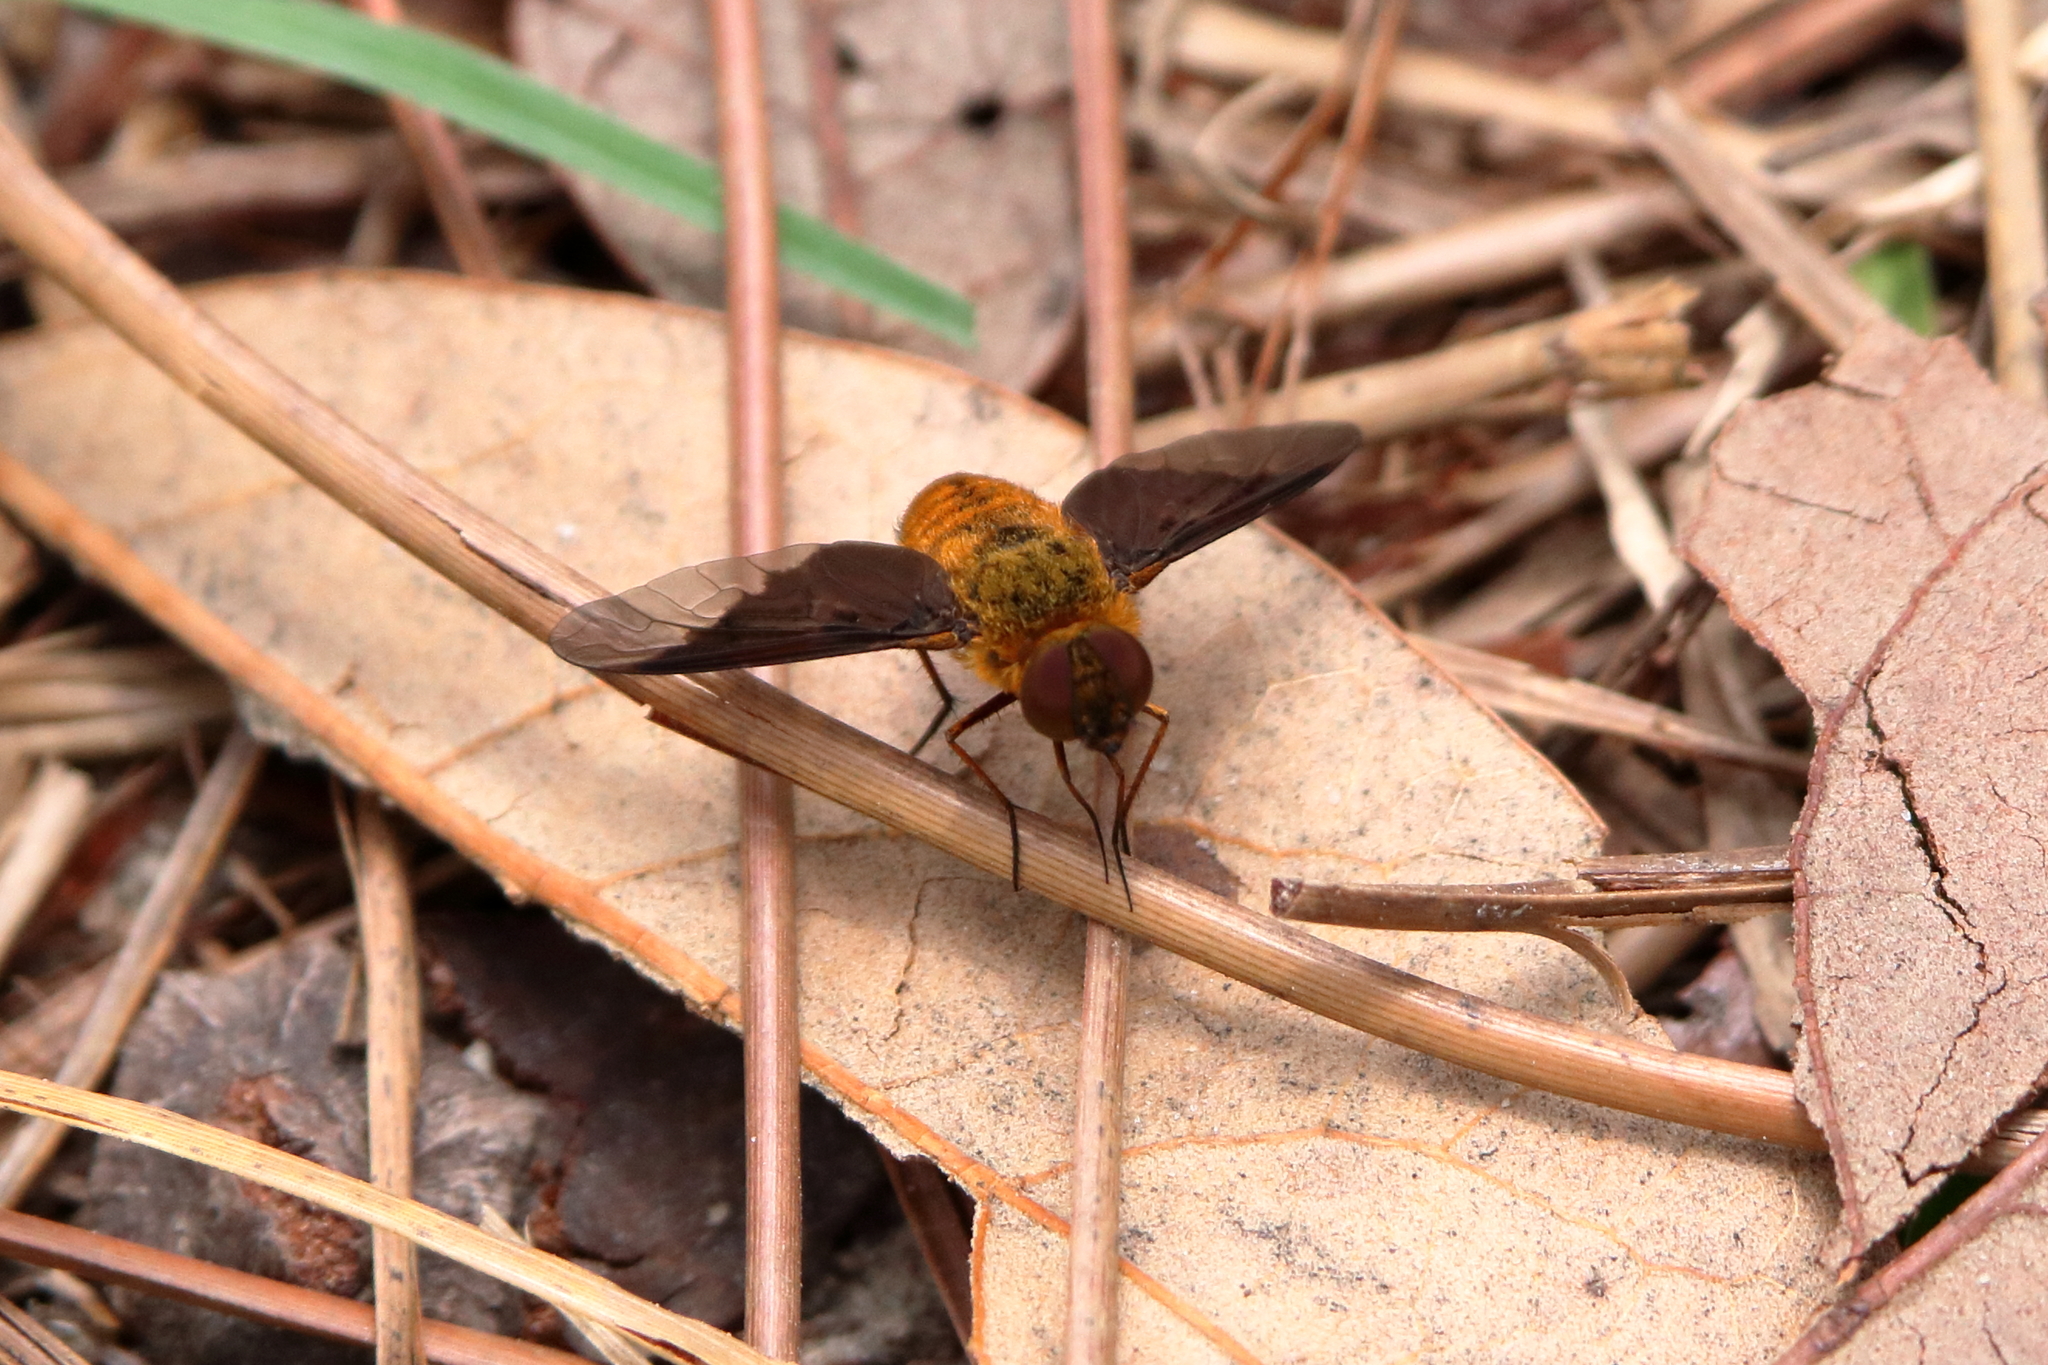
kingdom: Animalia
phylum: Arthropoda
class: Insecta
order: Diptera
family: Bombyliidae
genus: Chrysanthrax
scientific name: Chrysanthrax cypris
